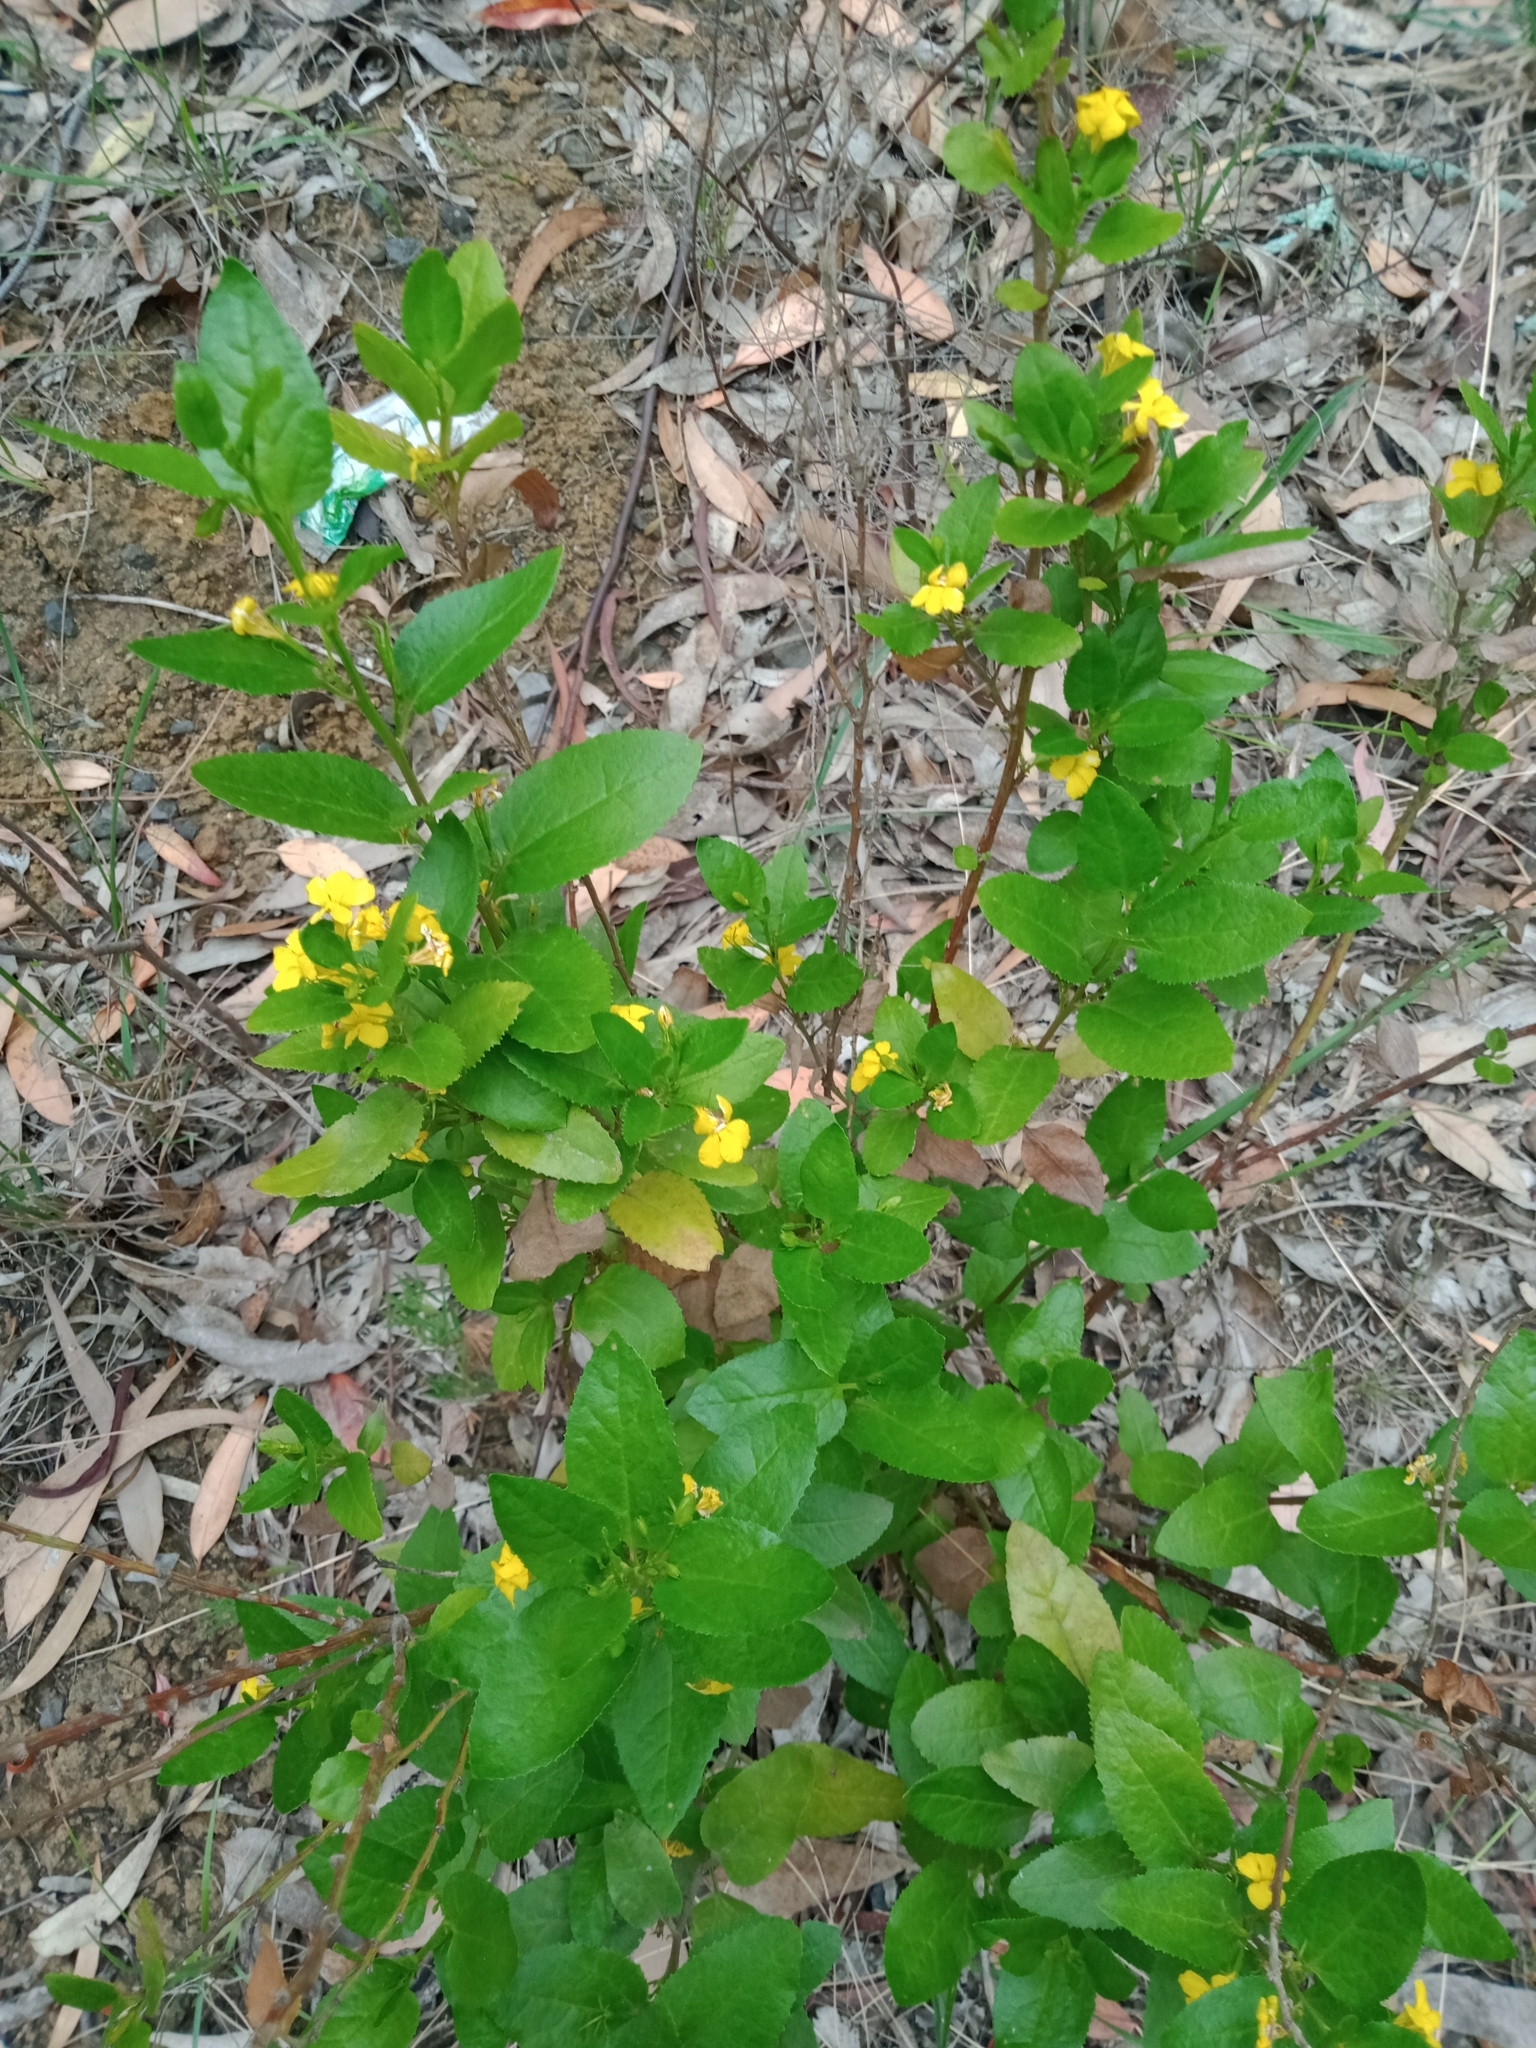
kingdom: Plantae
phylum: Tracheophyta
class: Magnoliopsida
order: Asterales
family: Goodeniaceae
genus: Goodenia
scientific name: Goodenia ovata
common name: Hop goodenia
